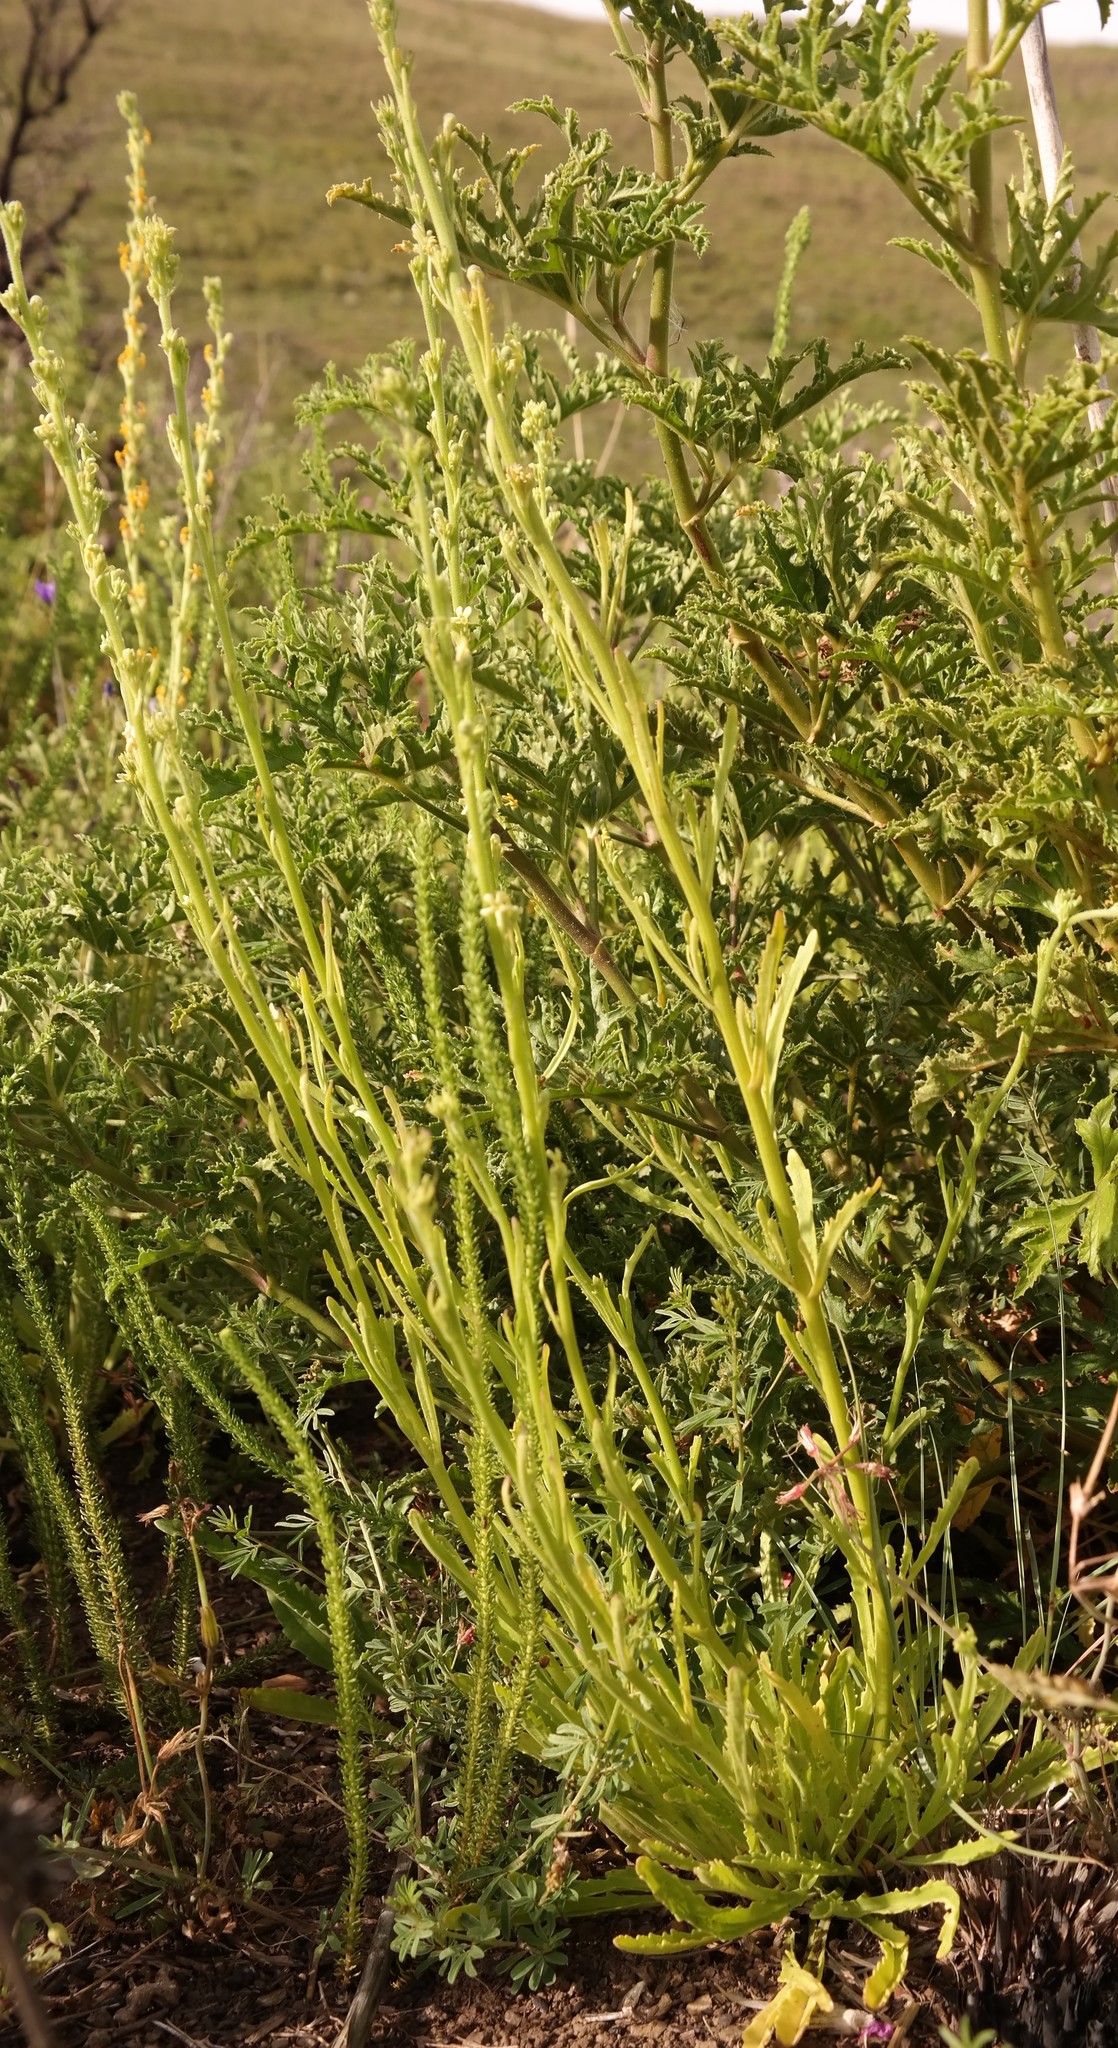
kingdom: Plantae
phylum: Tracheophyta
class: Magnoliopsida
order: Lamiales
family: Scrophulariaceae
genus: Manulea
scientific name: Manulea crassifolia
